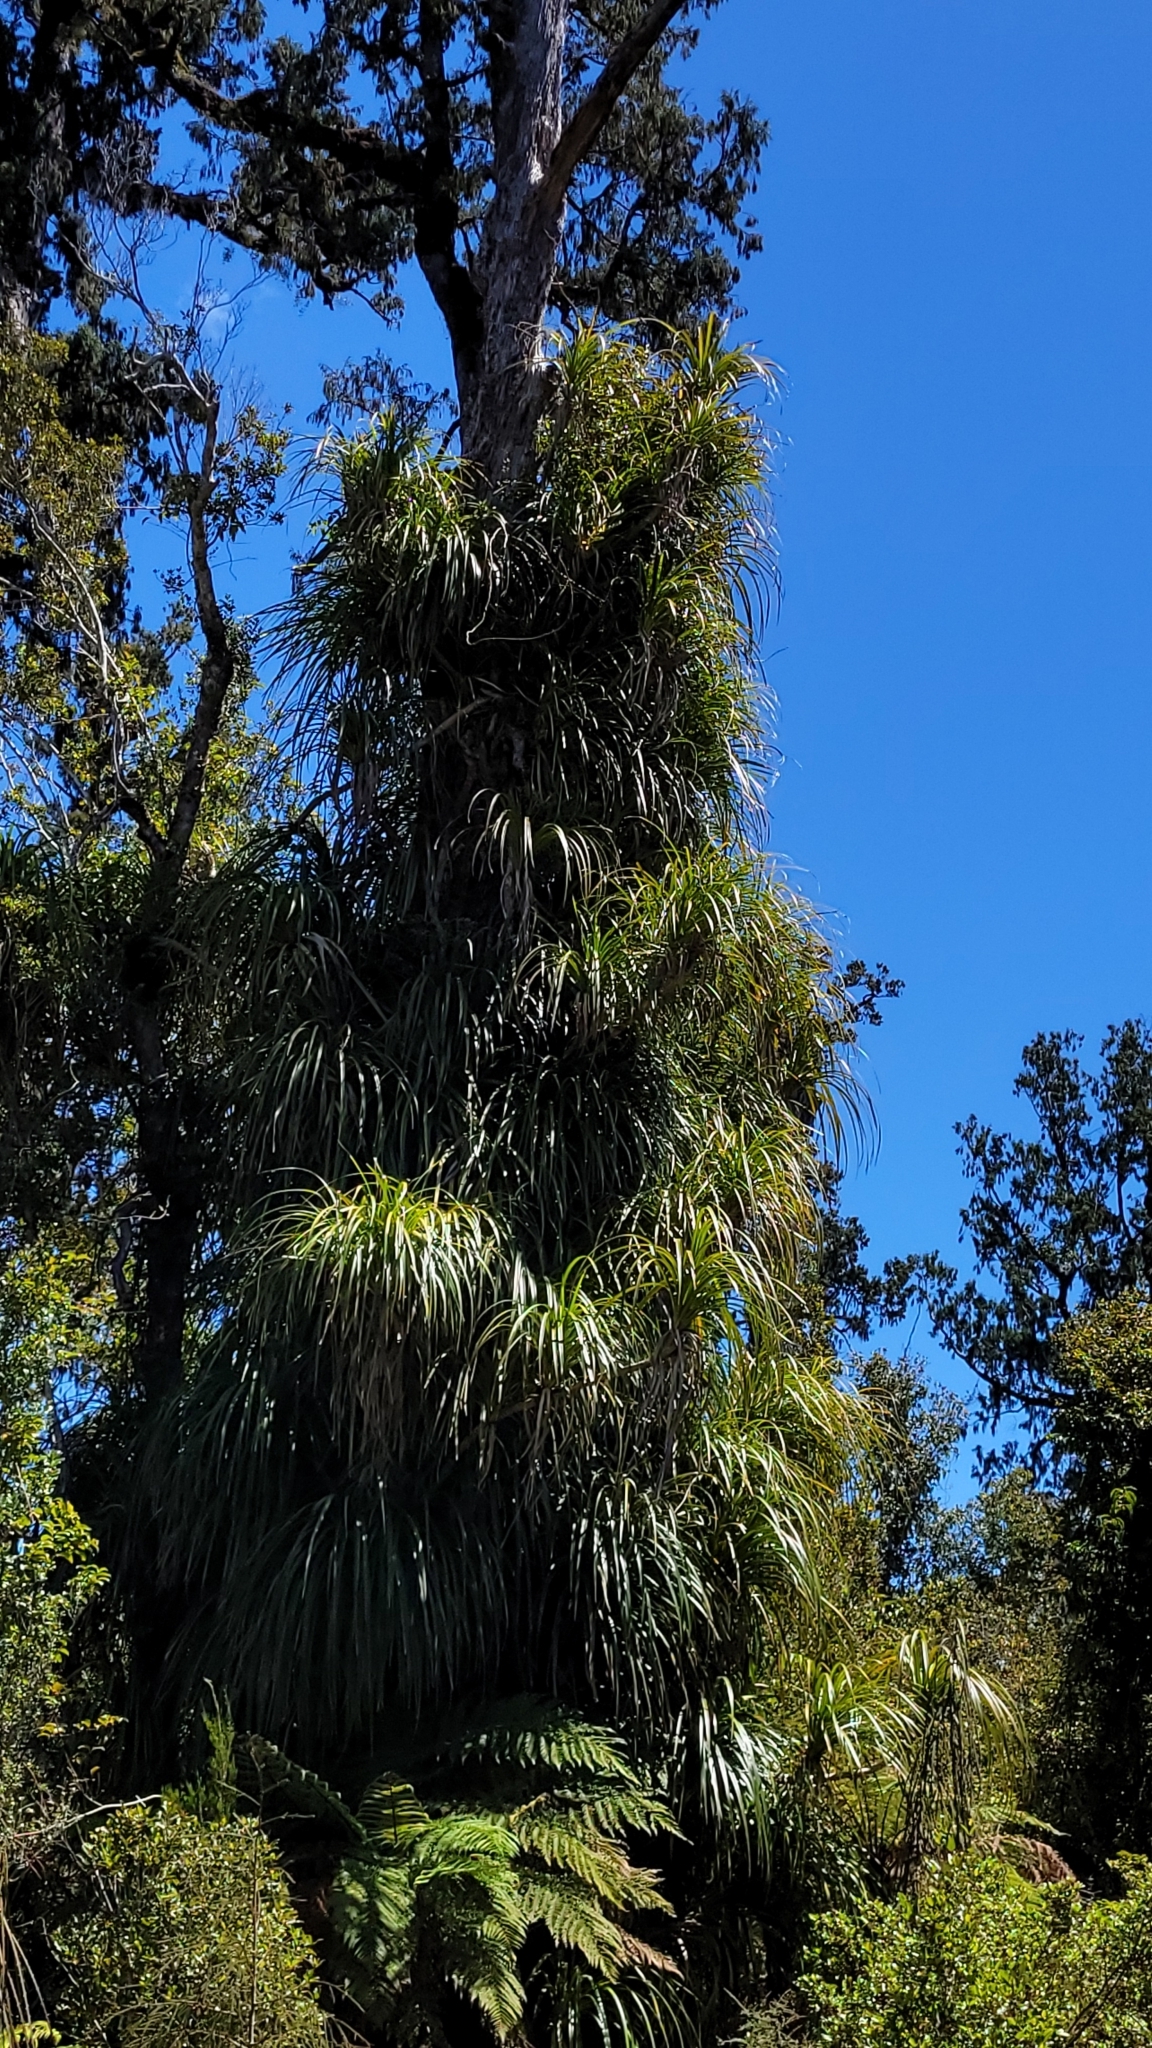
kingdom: Plantae
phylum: Tracheophyta
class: Liliopsida
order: Pandanales
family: Pandanaceae
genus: Freycinetia
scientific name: Freycinetia banksii
